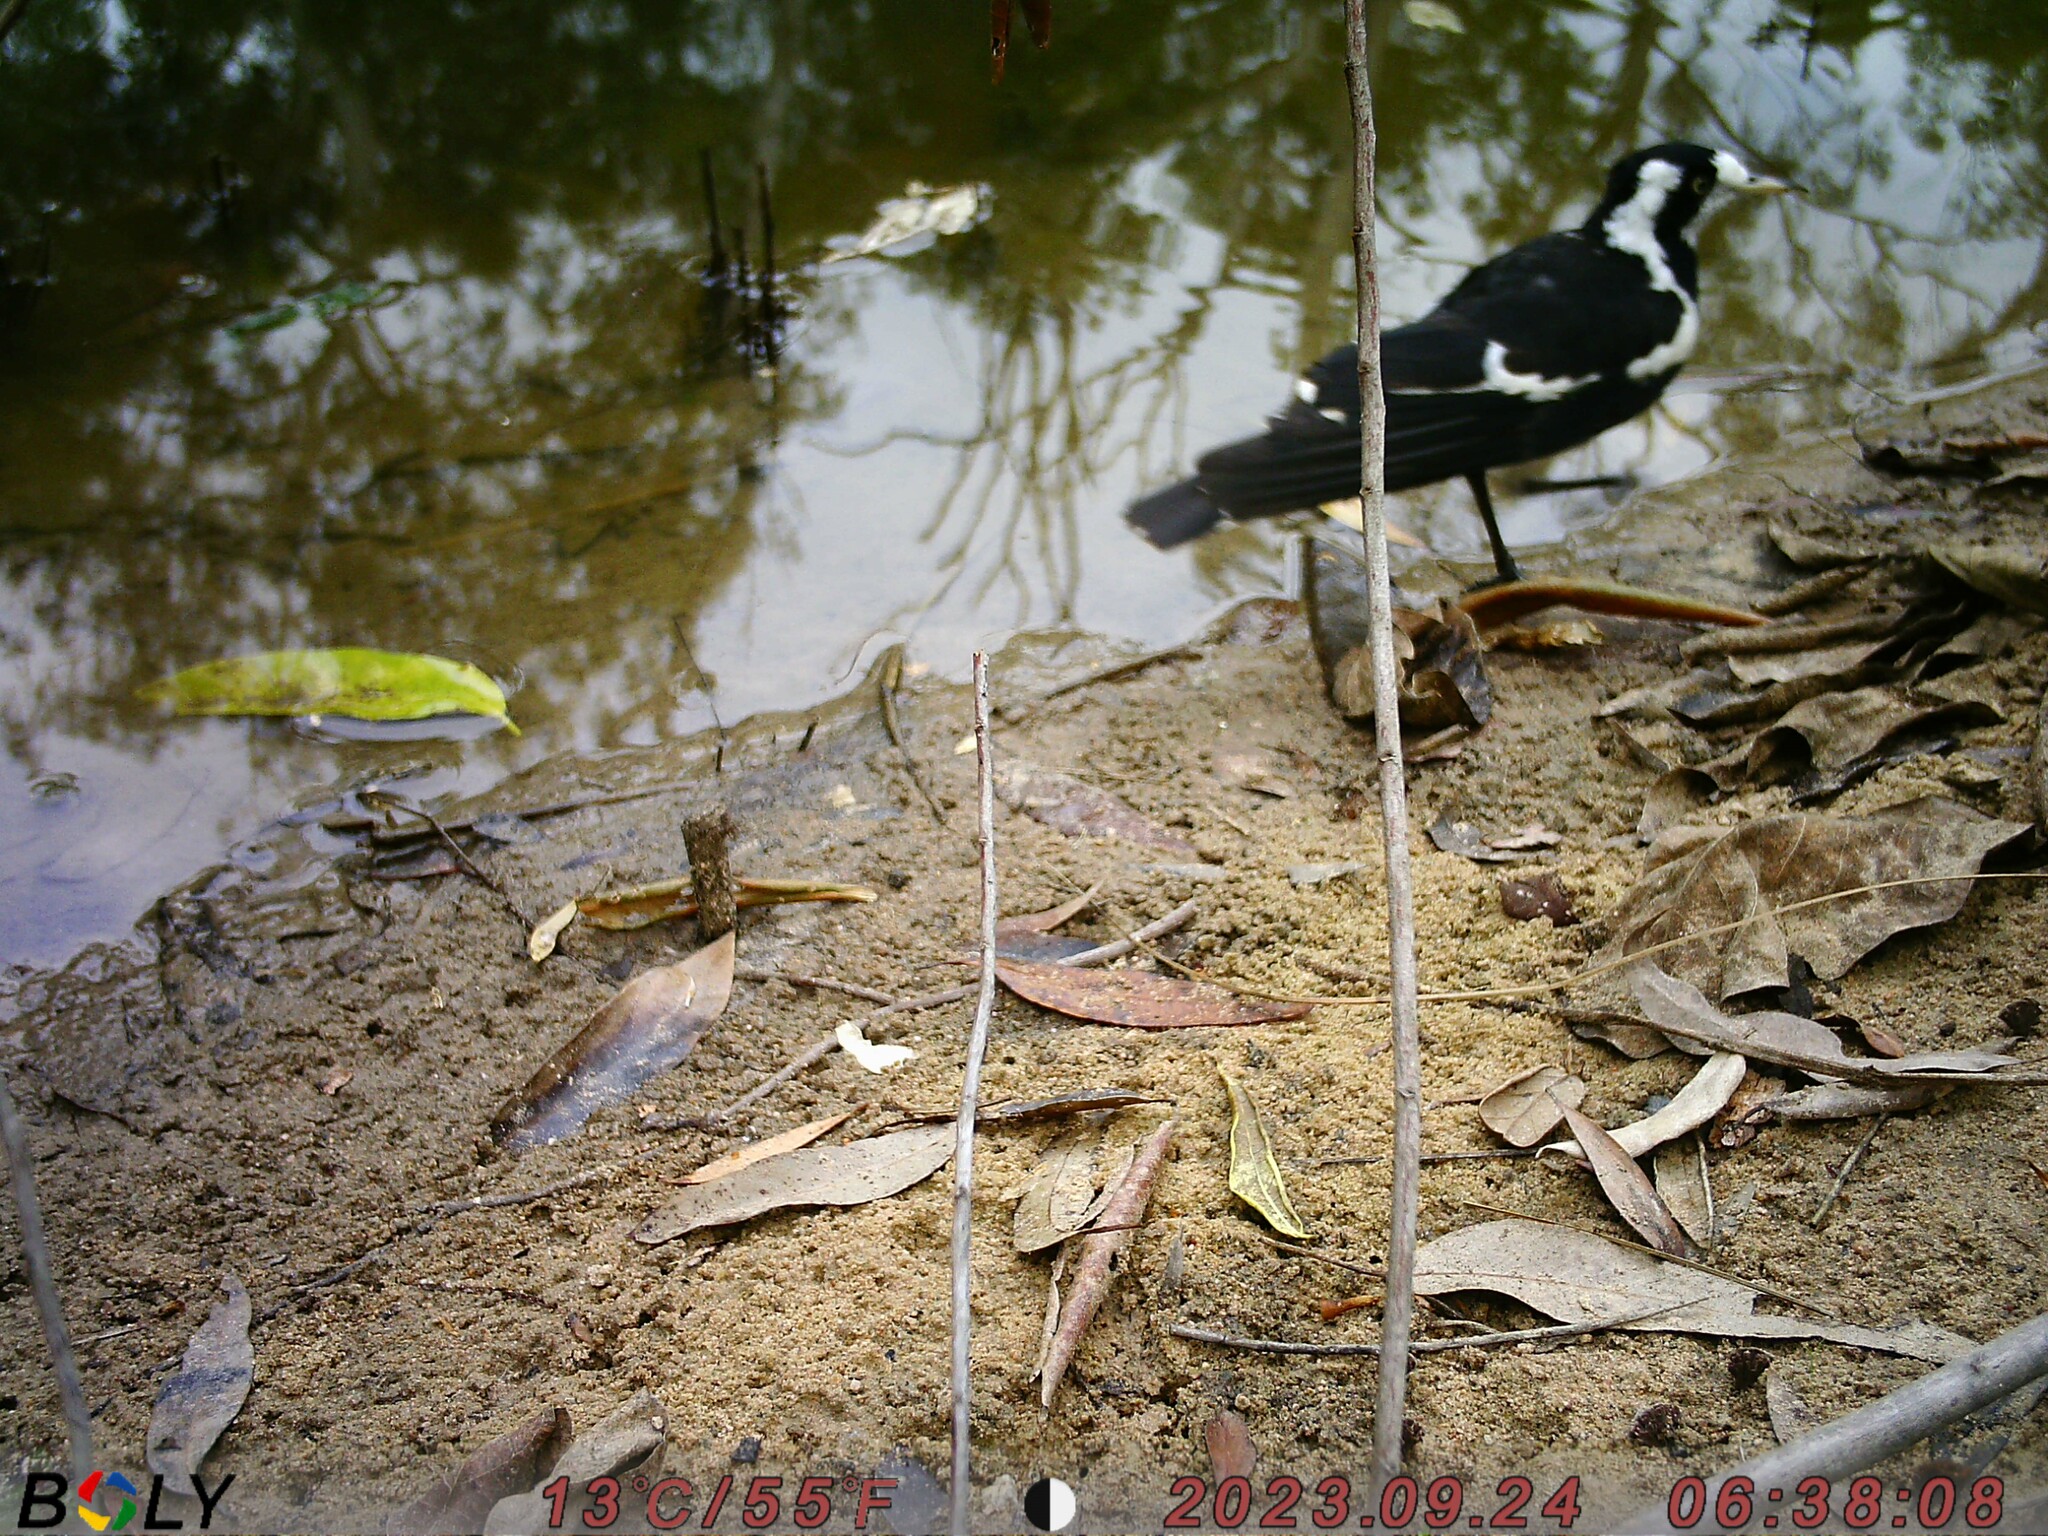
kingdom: Animalia
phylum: Chordata
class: Aves
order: Passeriformes
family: Monarchidae
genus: Grallina
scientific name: Grallina cyanoleuca
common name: Magpie-lark
